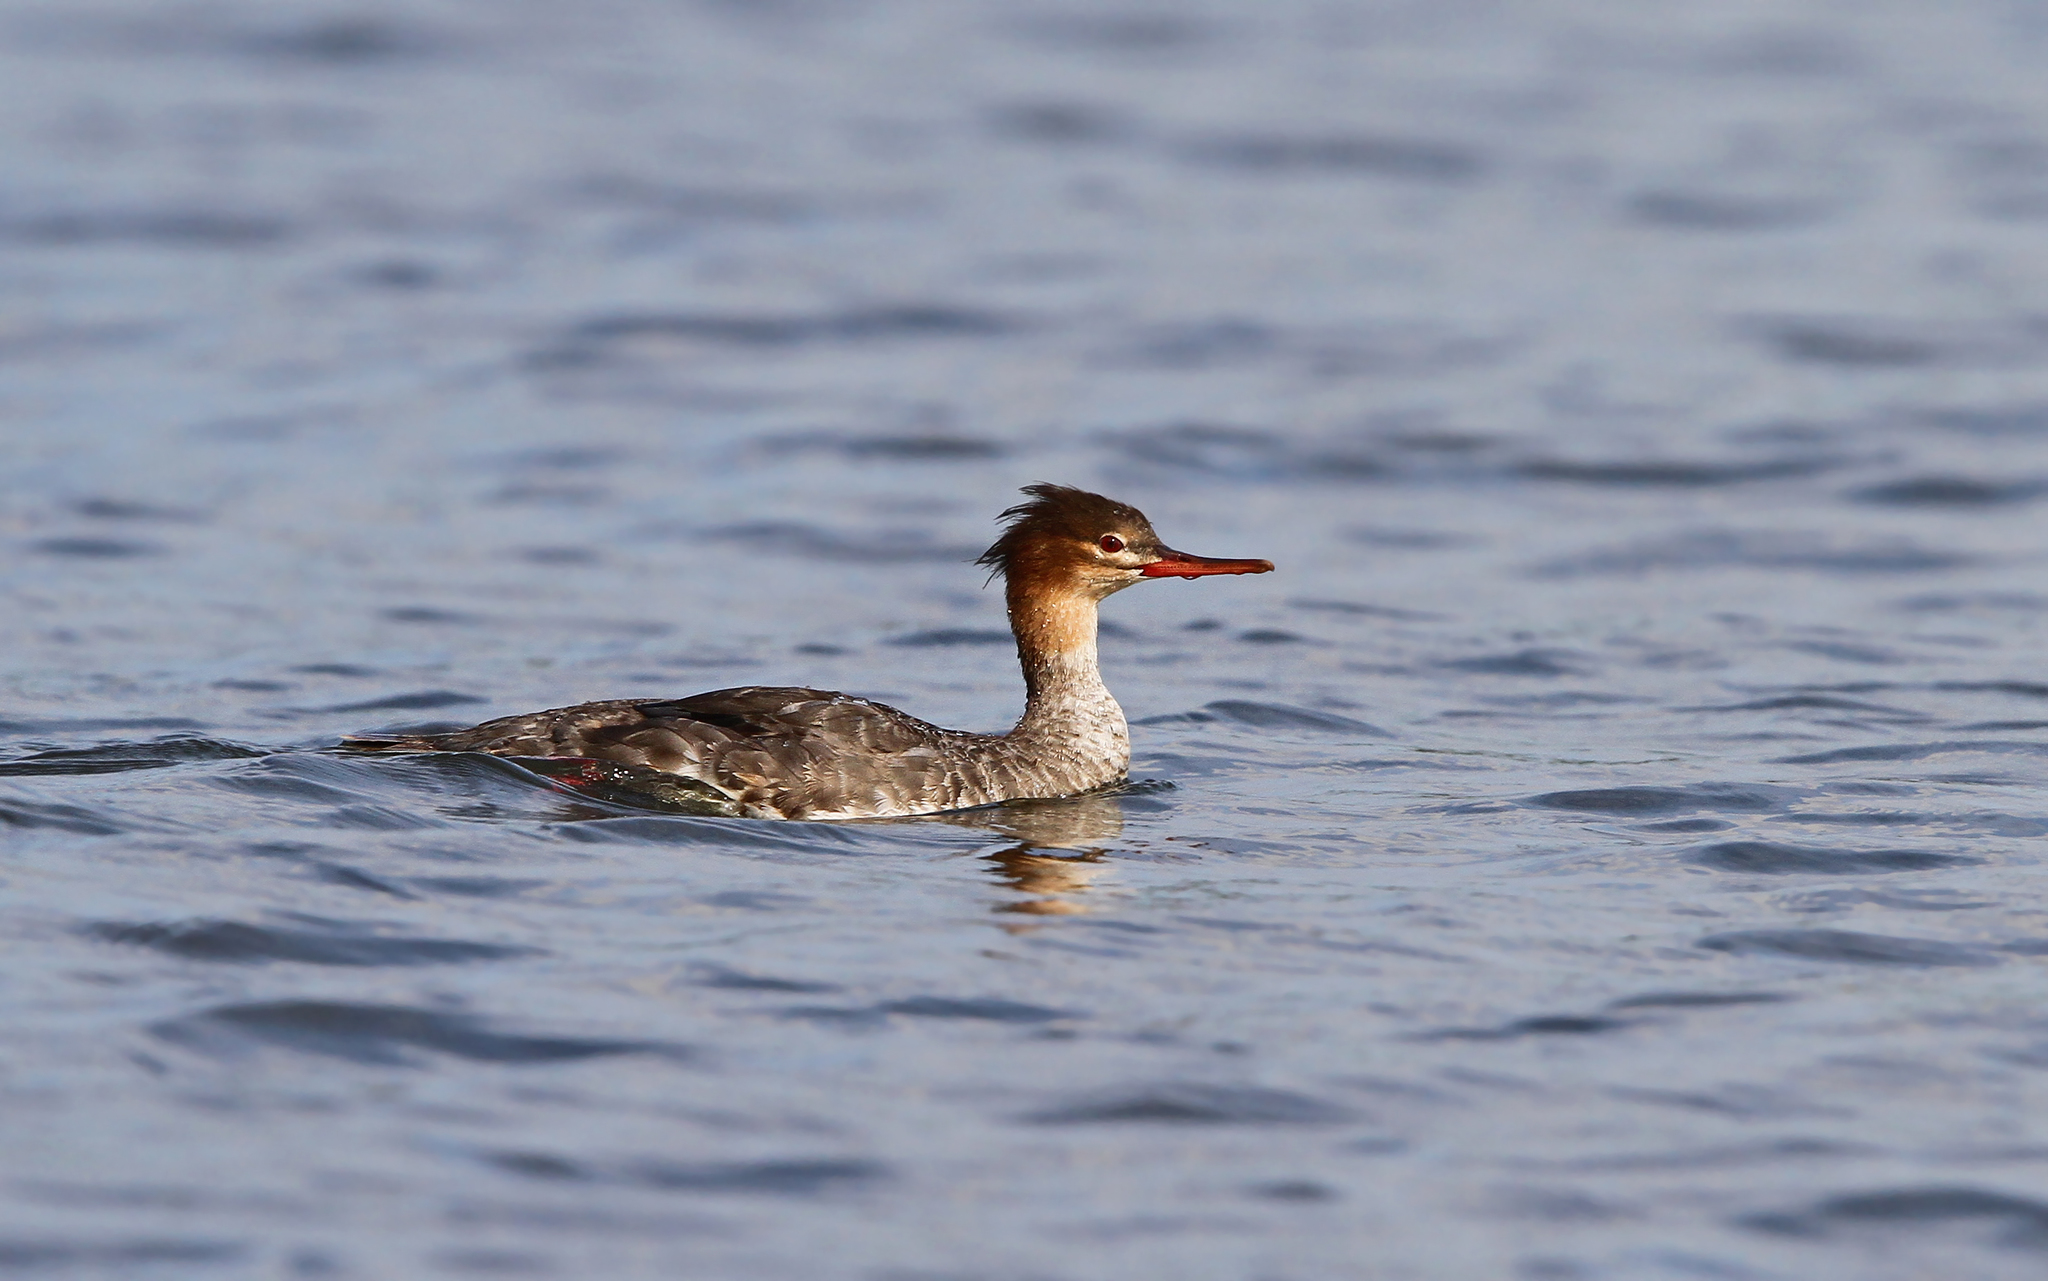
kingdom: Animalia
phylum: Chordata
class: Aves
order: Anseriformes
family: Anatidae
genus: Mergus
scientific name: Mergus serrator
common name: Red-breasted merganser
